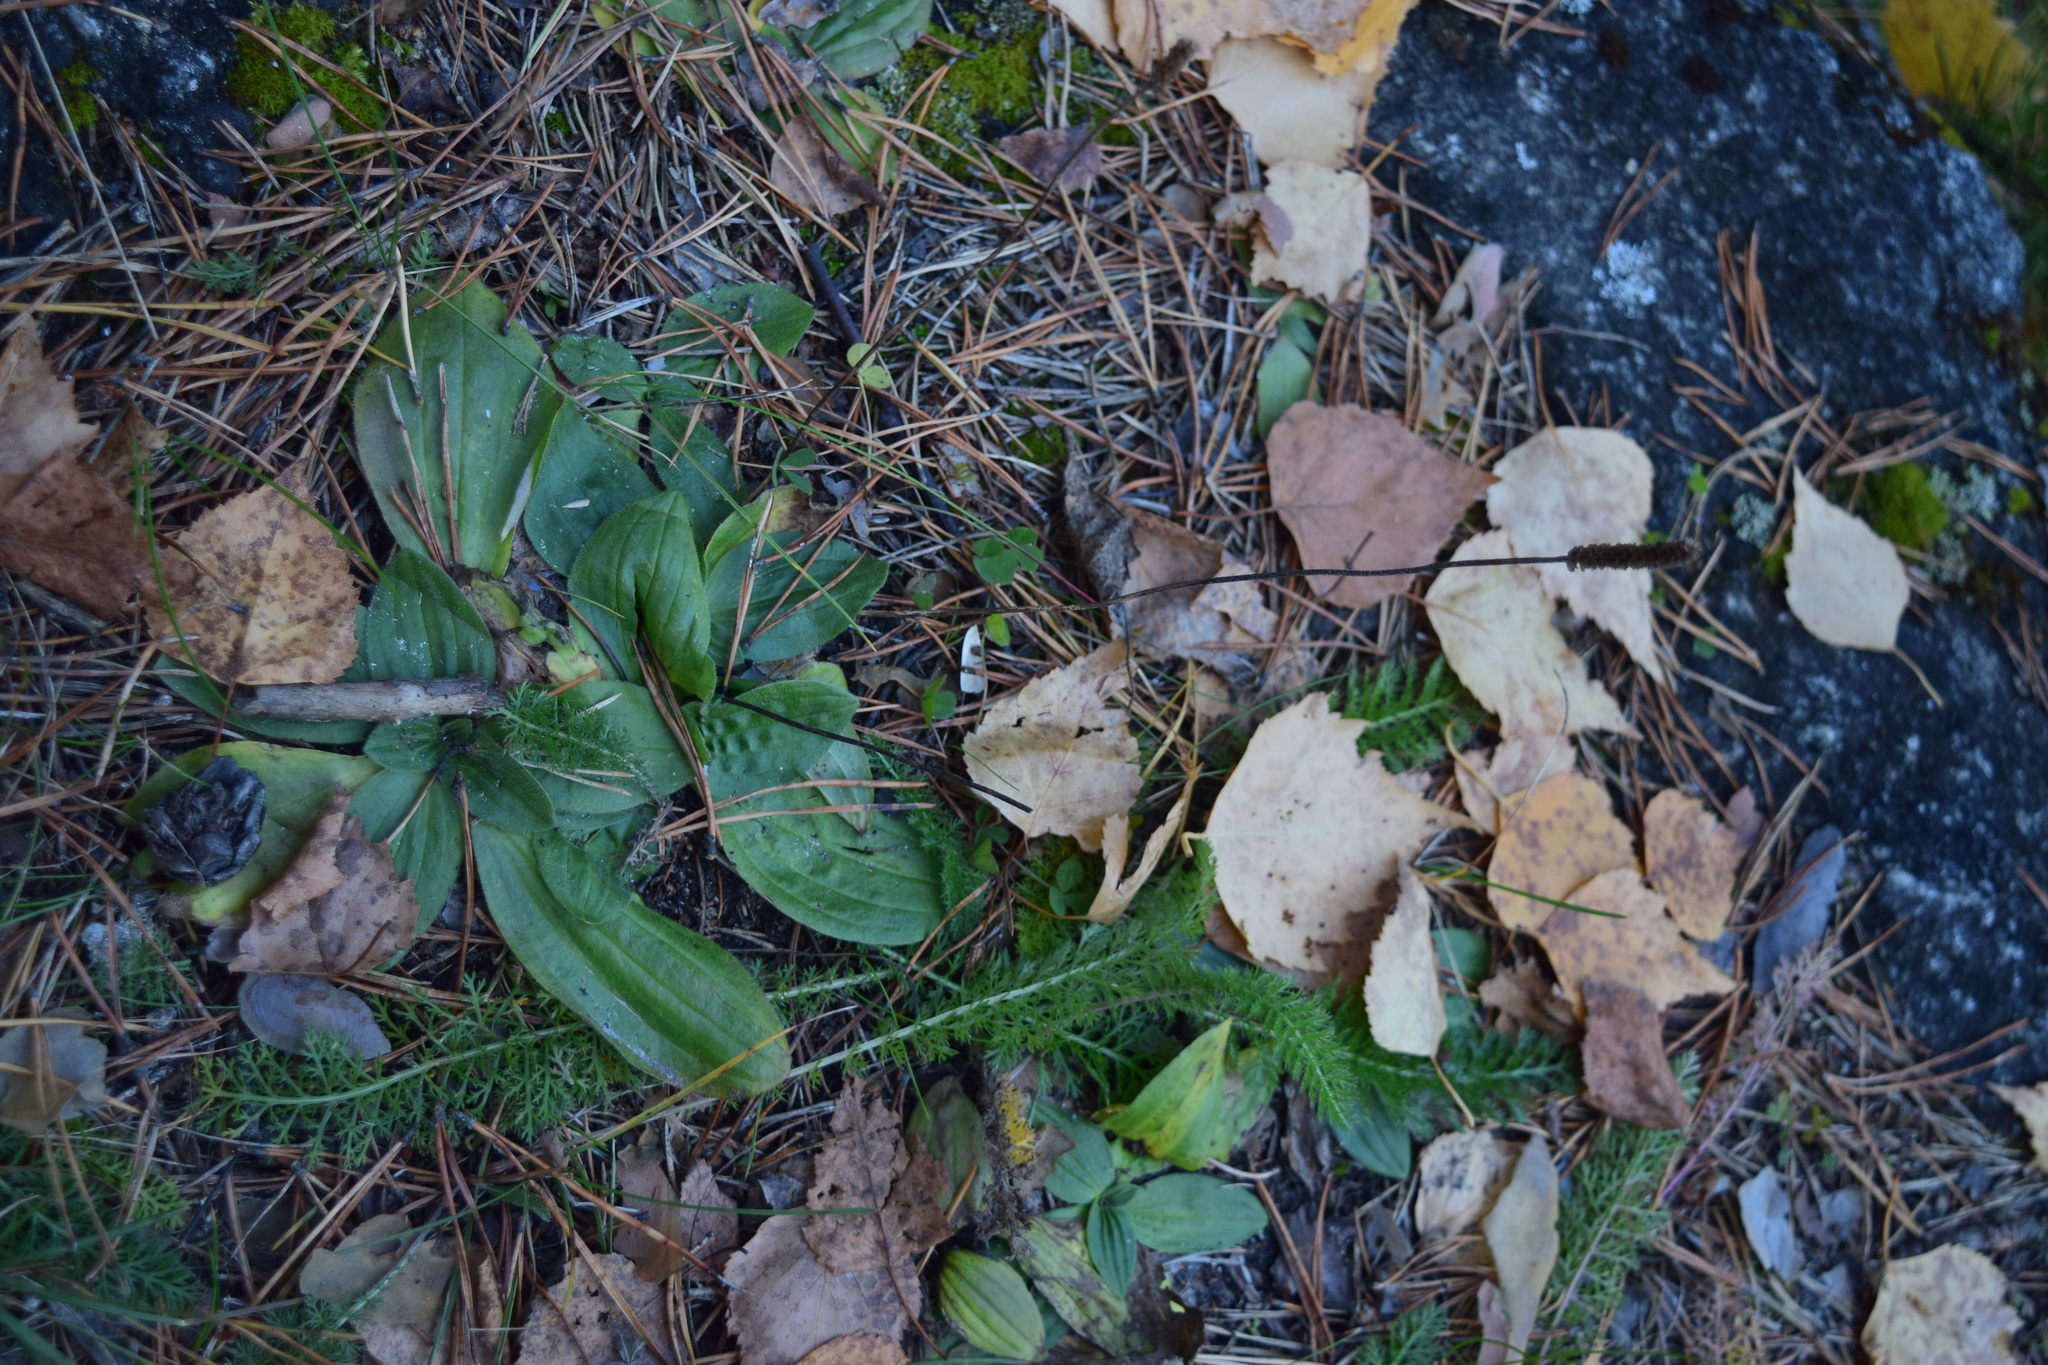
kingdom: Plantae
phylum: Tracheophyta
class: Magnoliopsida
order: Lamiales
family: Plantaginaceae
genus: Plantago
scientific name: Plantago media
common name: Hoary plantain
